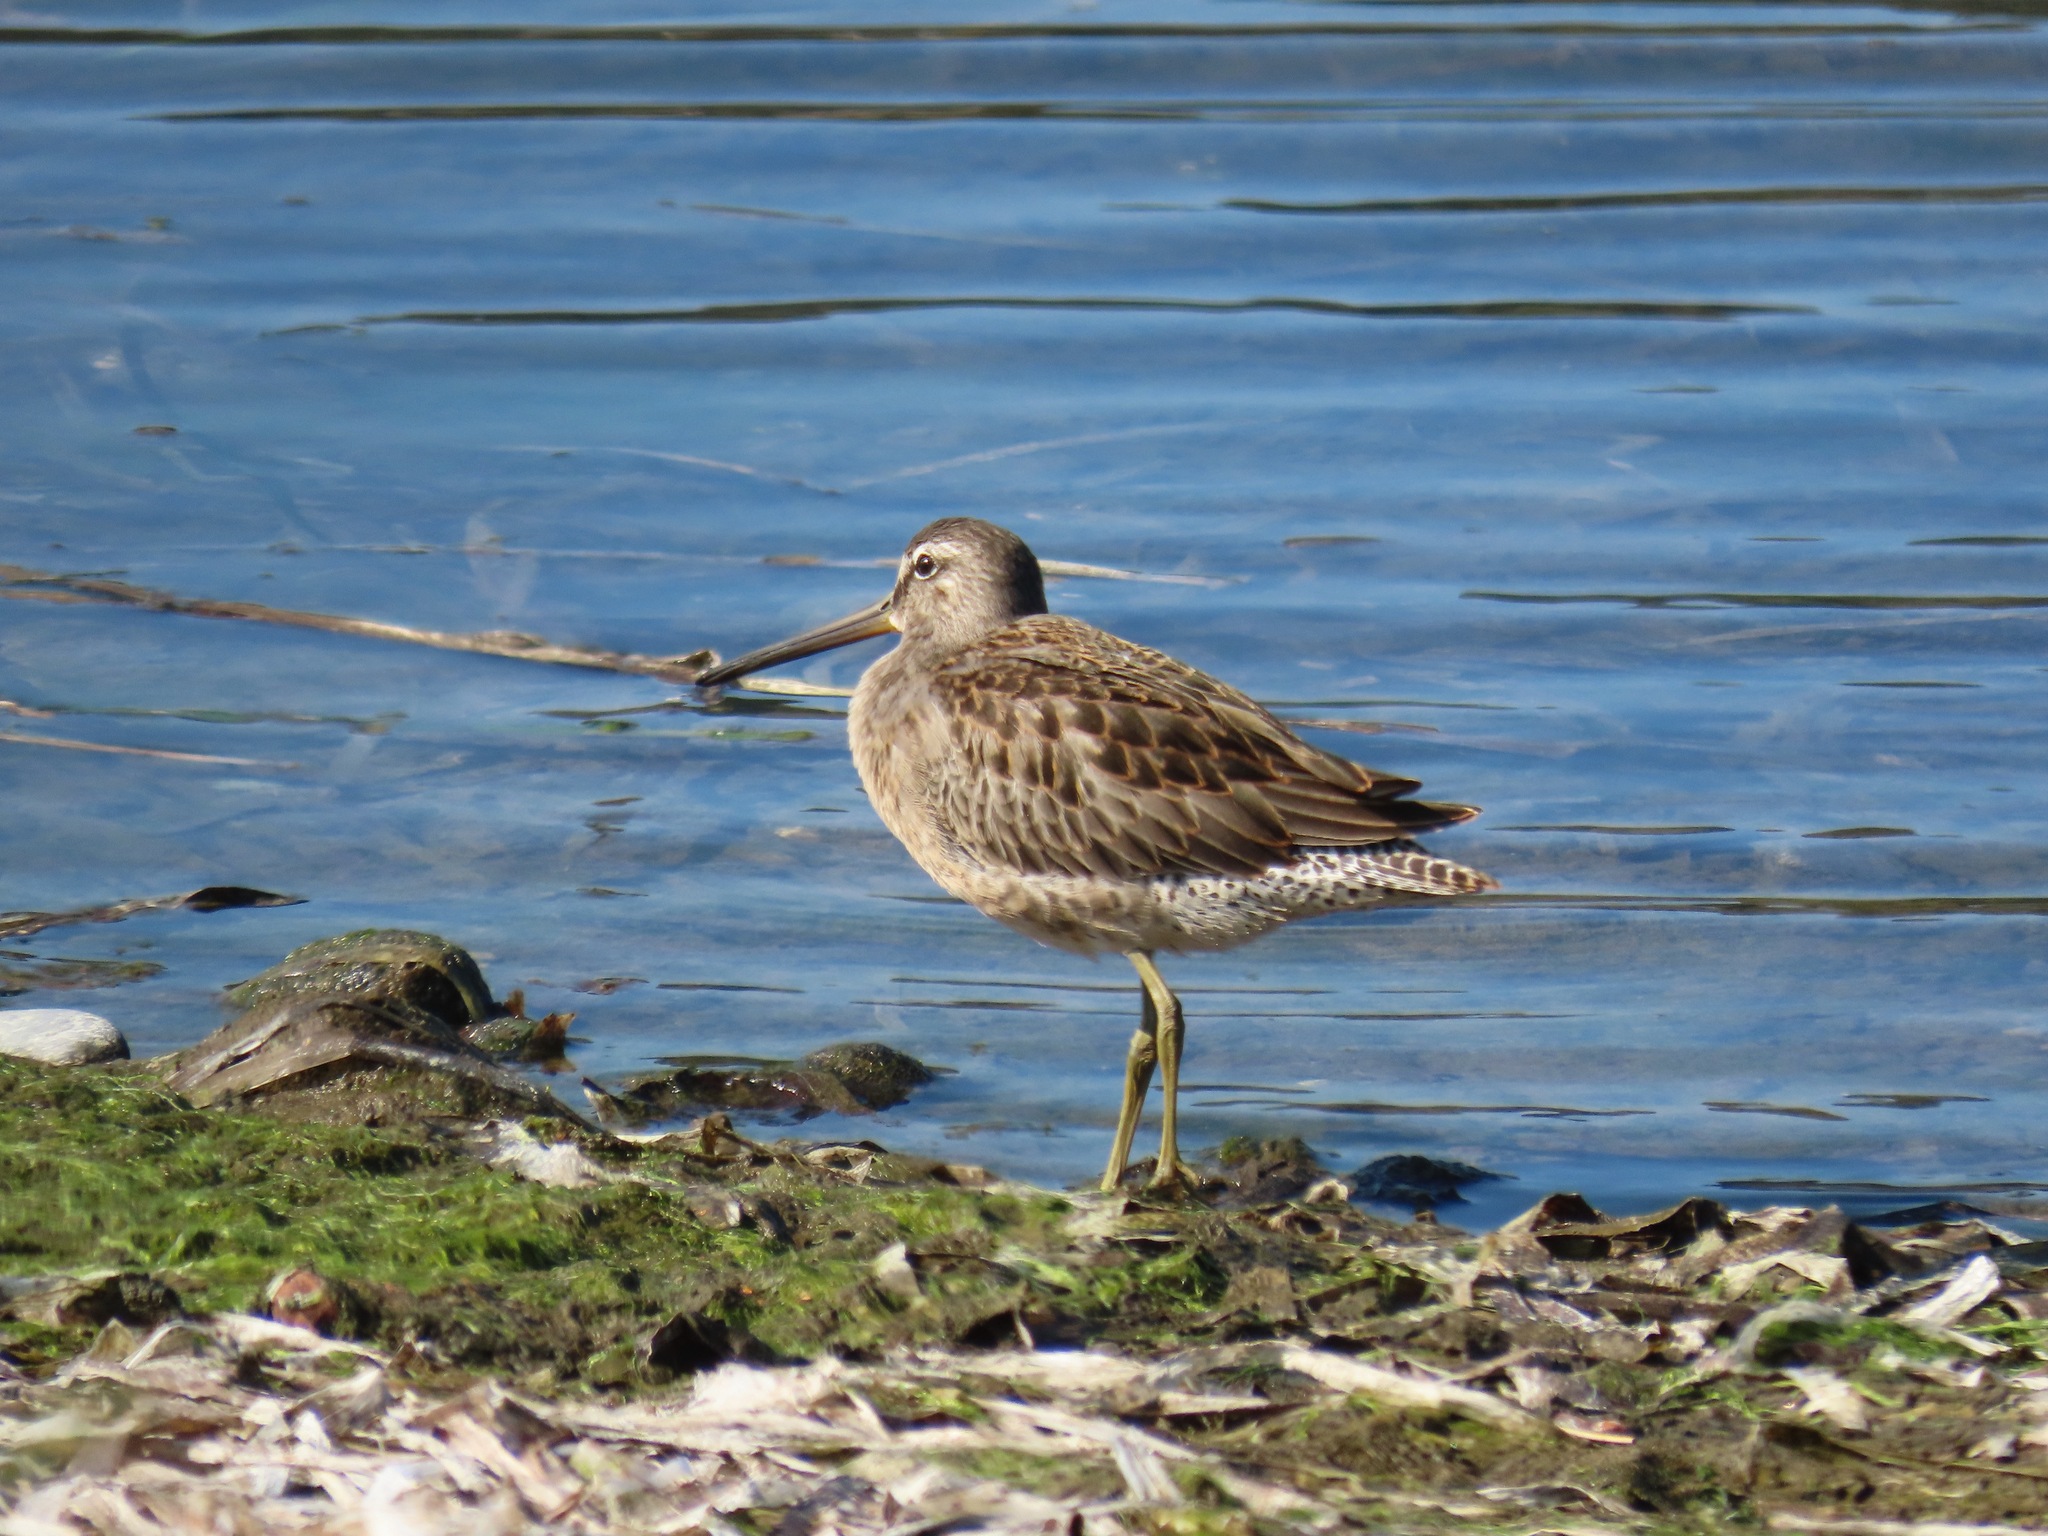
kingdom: Animalia
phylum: Chordata
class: Aves
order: Charadriiformes
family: Scolopacidae
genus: Limnodromus
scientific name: Limnodromus scolopaceus
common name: Long-billed dowitcher
